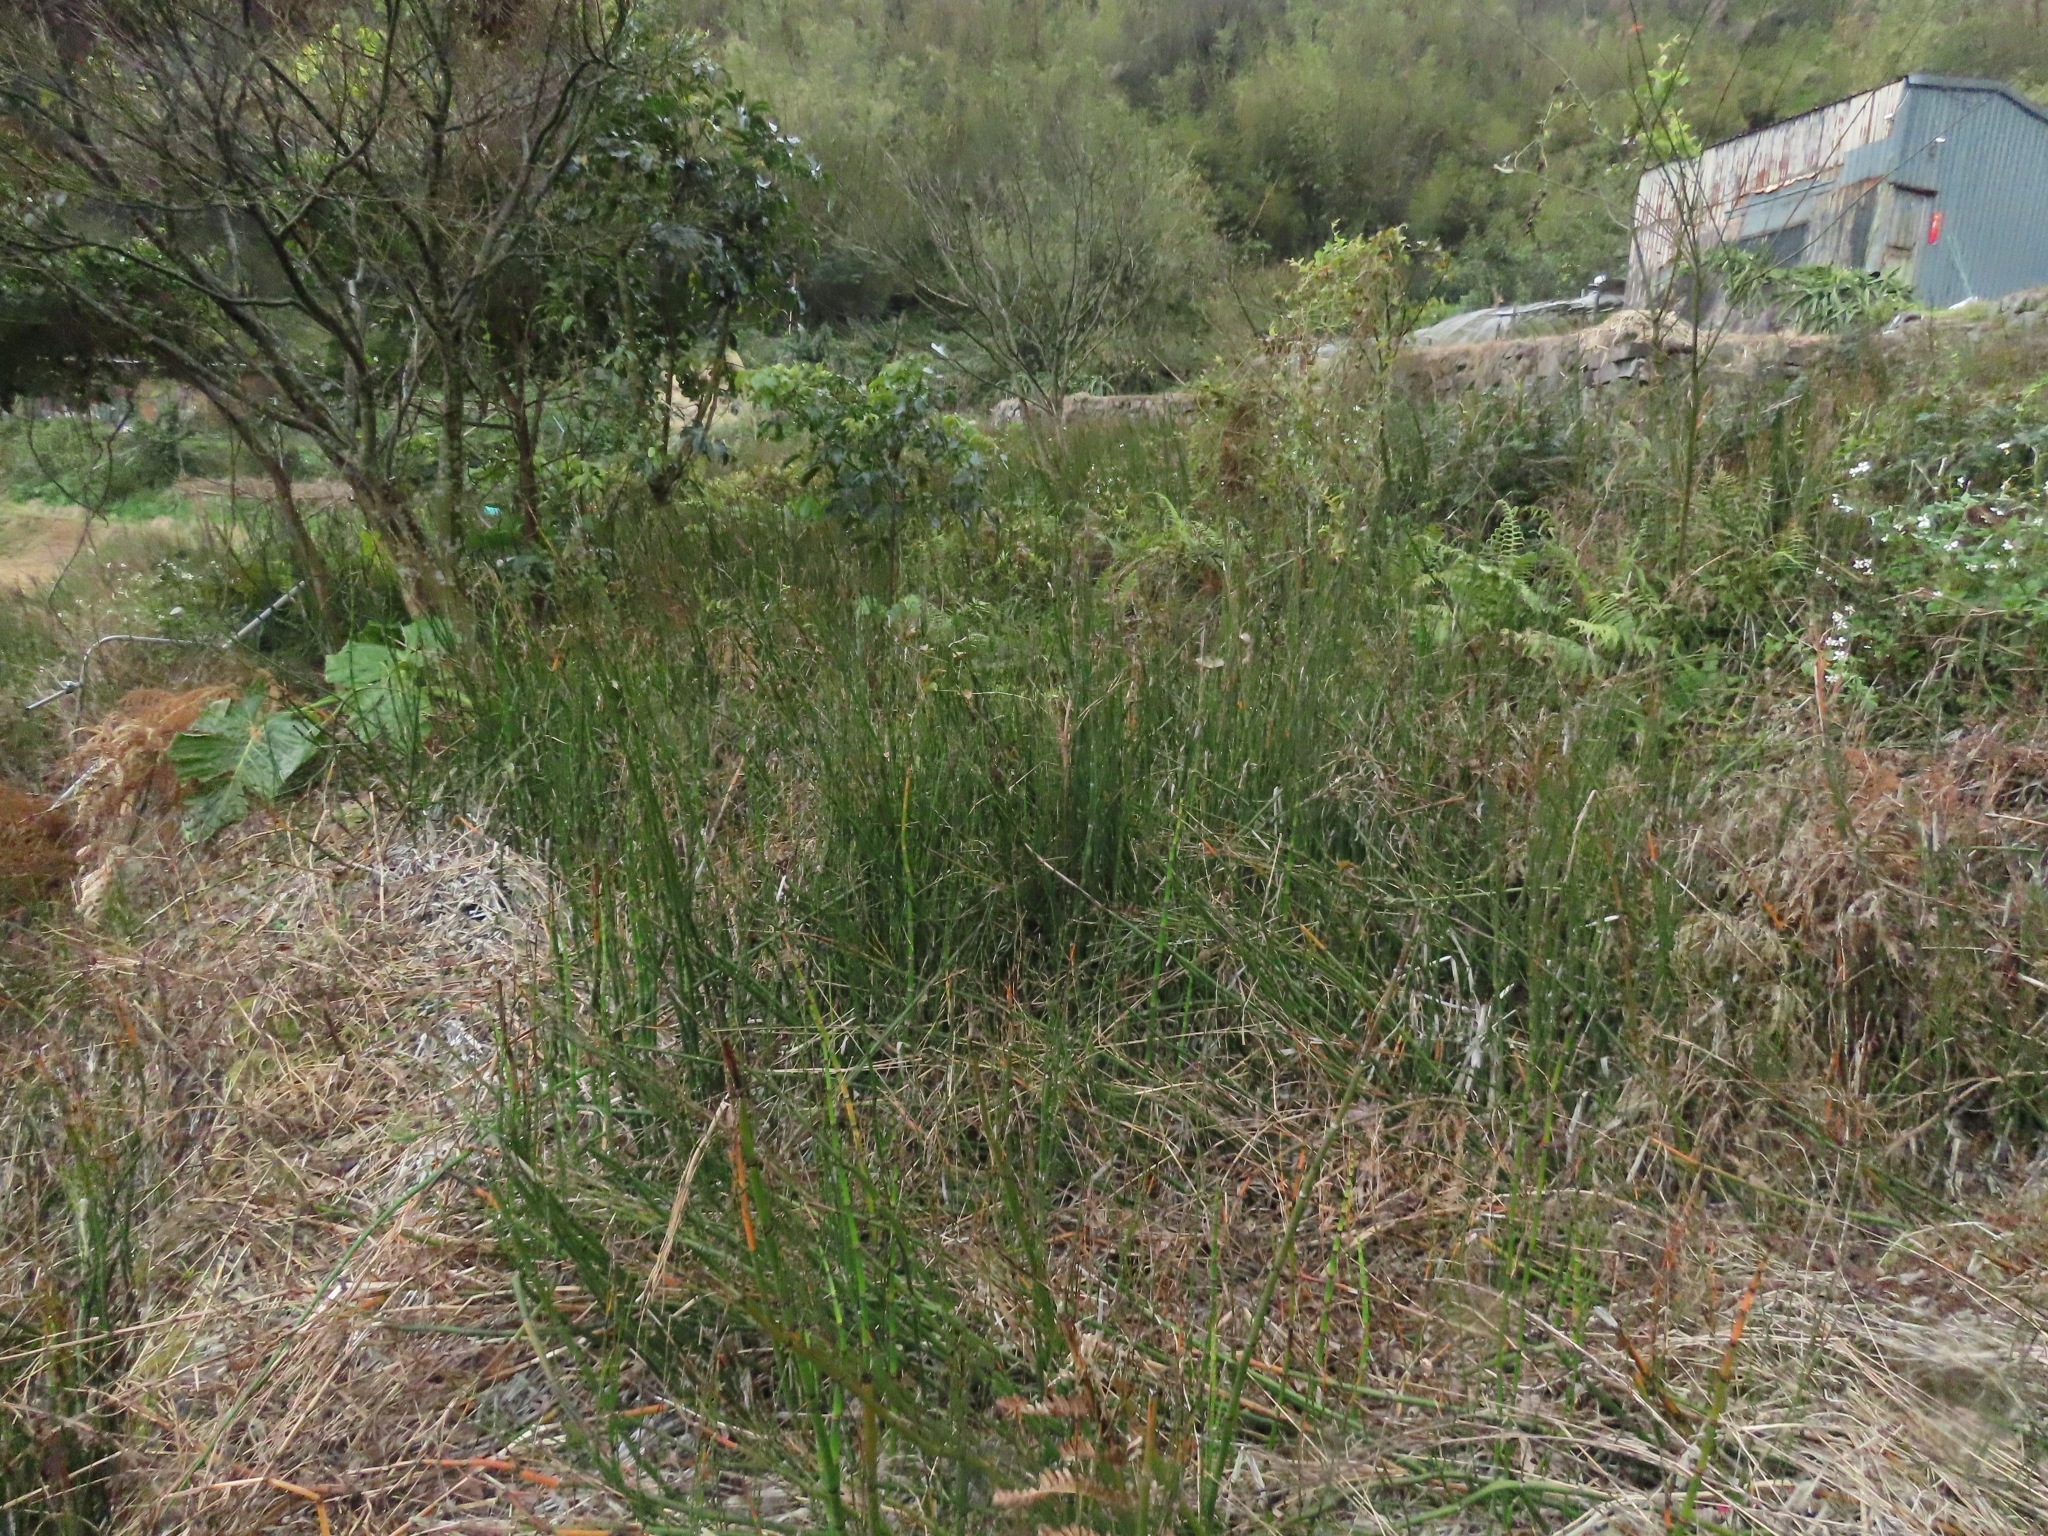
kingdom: Plantae
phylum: Tracheophyta
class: Polypodiopsida
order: Equisetales
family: Equisetaceae
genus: Equisetum
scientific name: Equisetum praealtum
